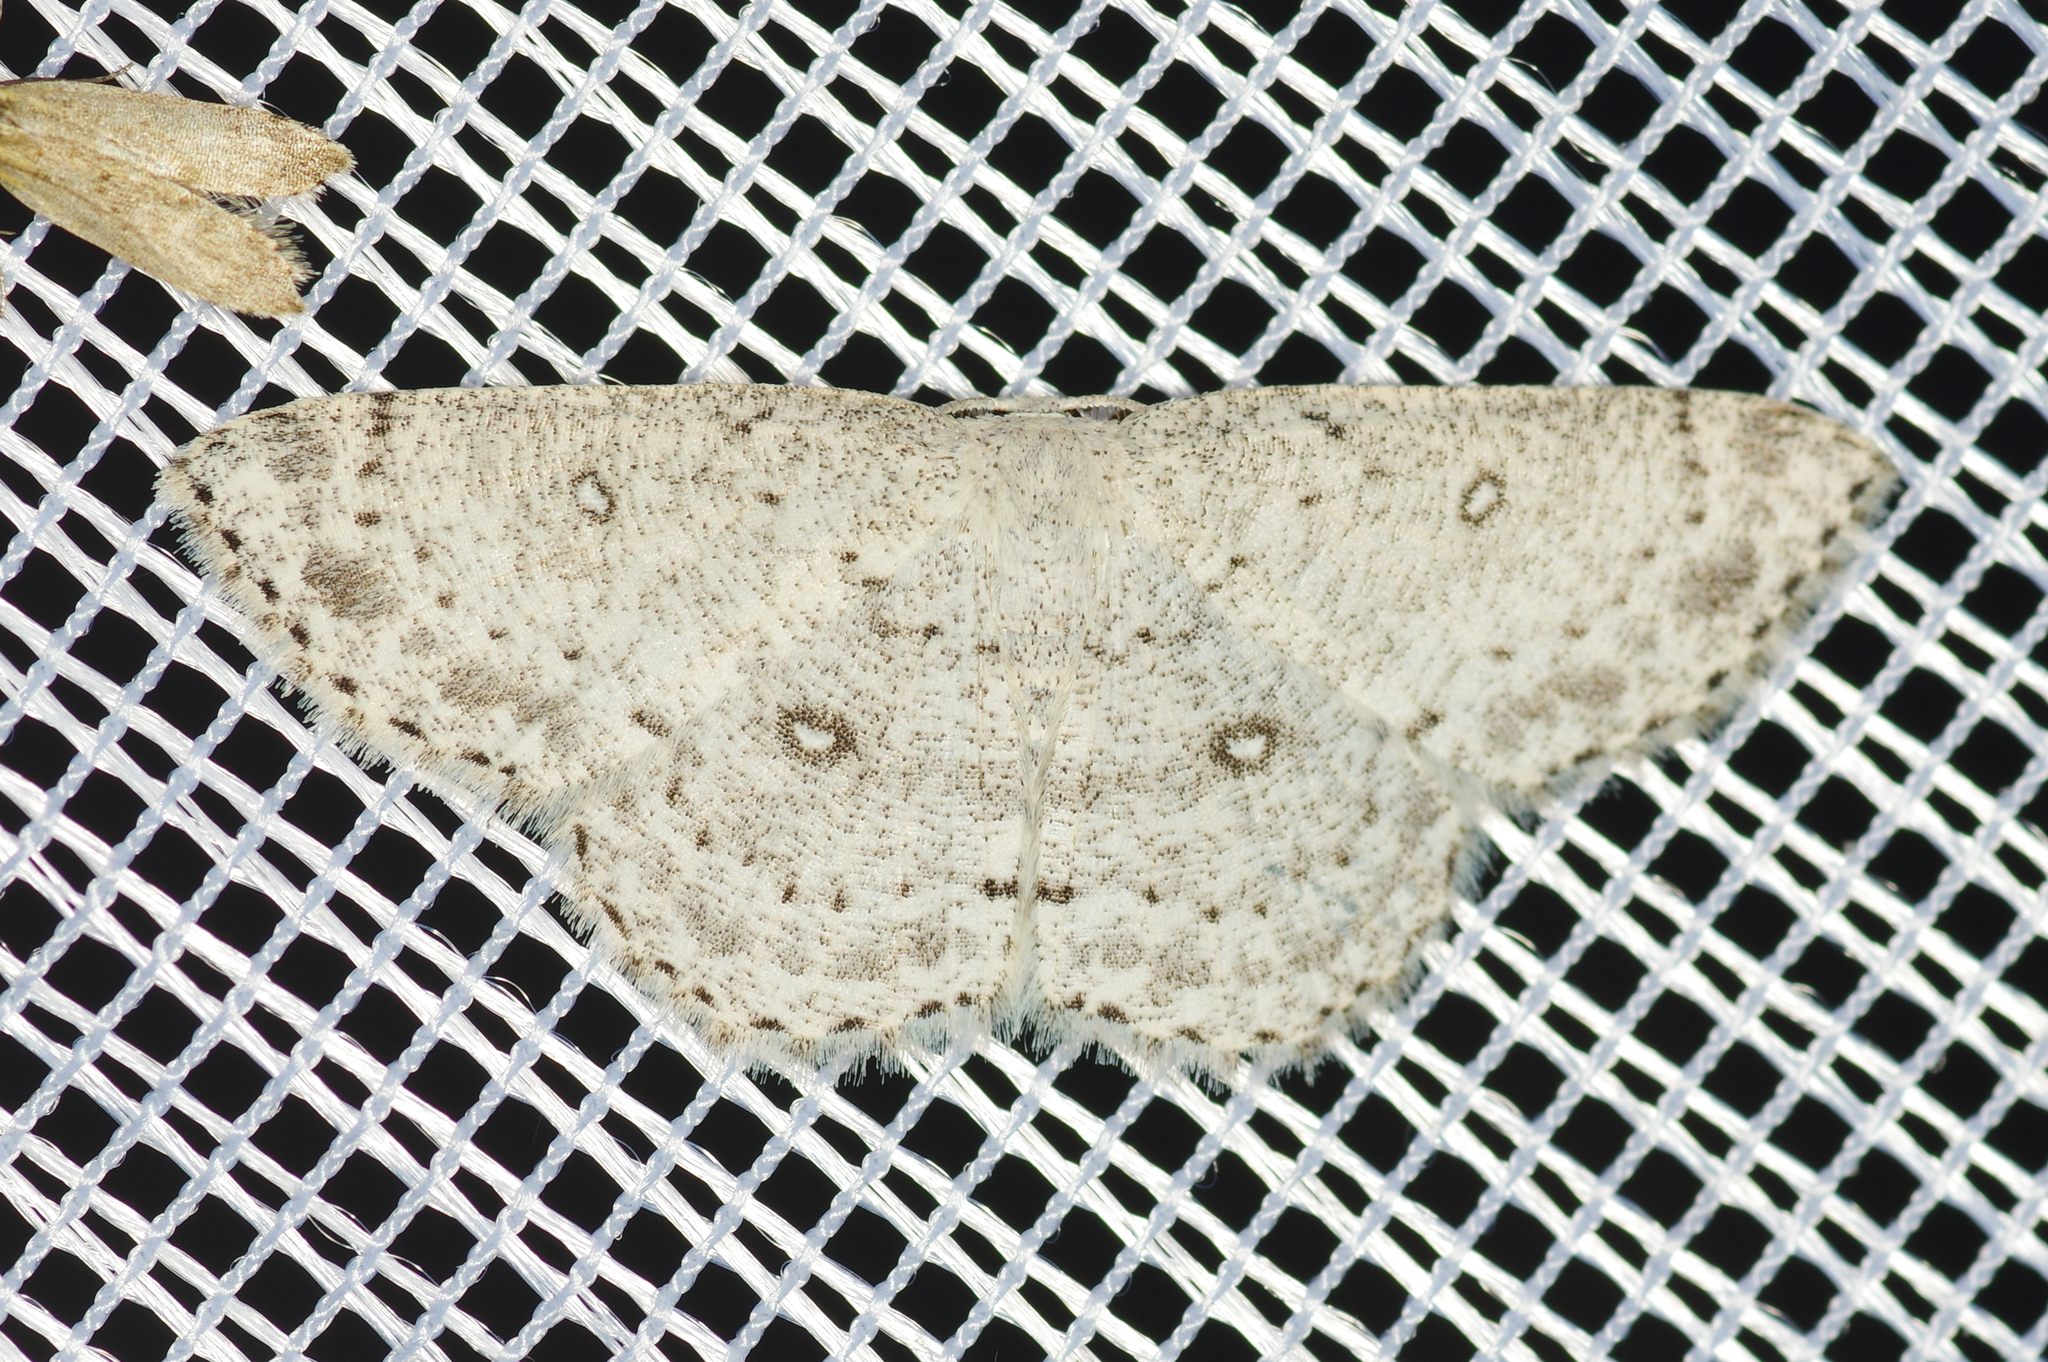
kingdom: Animalia
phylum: Arthropoda
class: Insecta
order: Lepidoptera
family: Geometridae
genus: Cyclophora
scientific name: Cyclophora pendulinaria
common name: Sweet fern geometer
